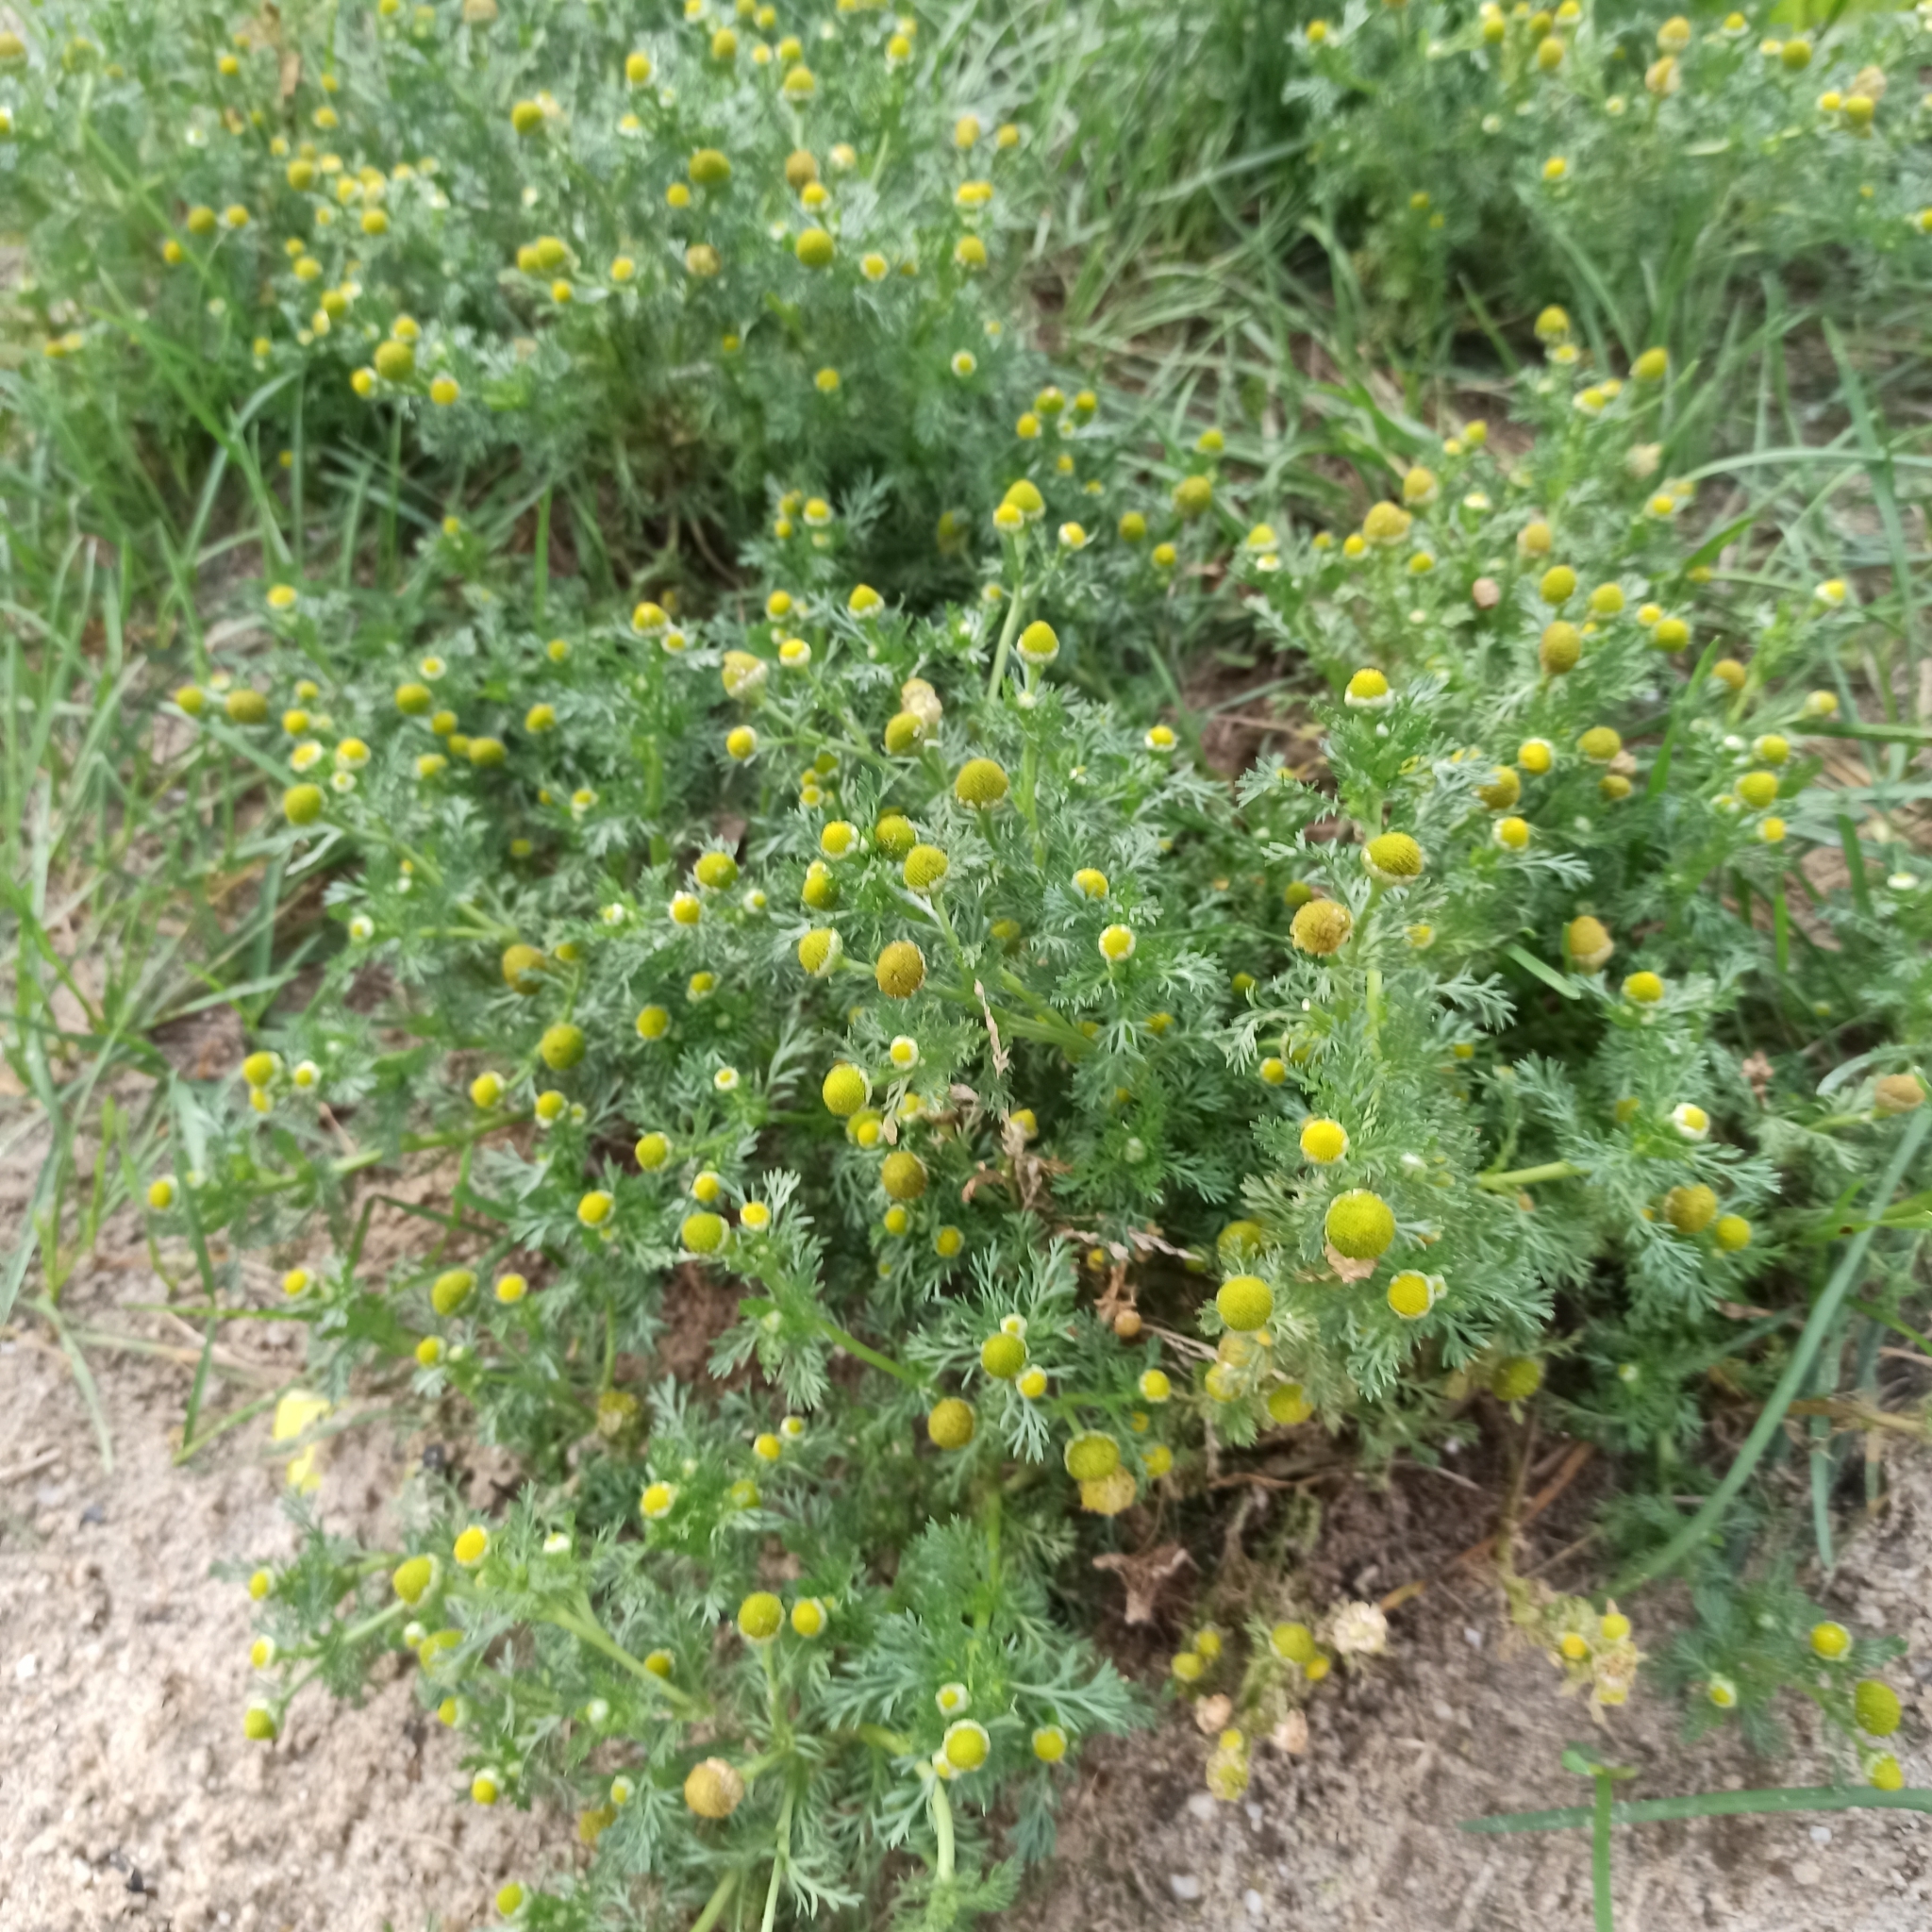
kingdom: Plantae
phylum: Tracheophyta
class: Magnoliopsida
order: Asterales
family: Asteraceae
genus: Matricaria
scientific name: Matricaria discoidea
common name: Disc mayweed
